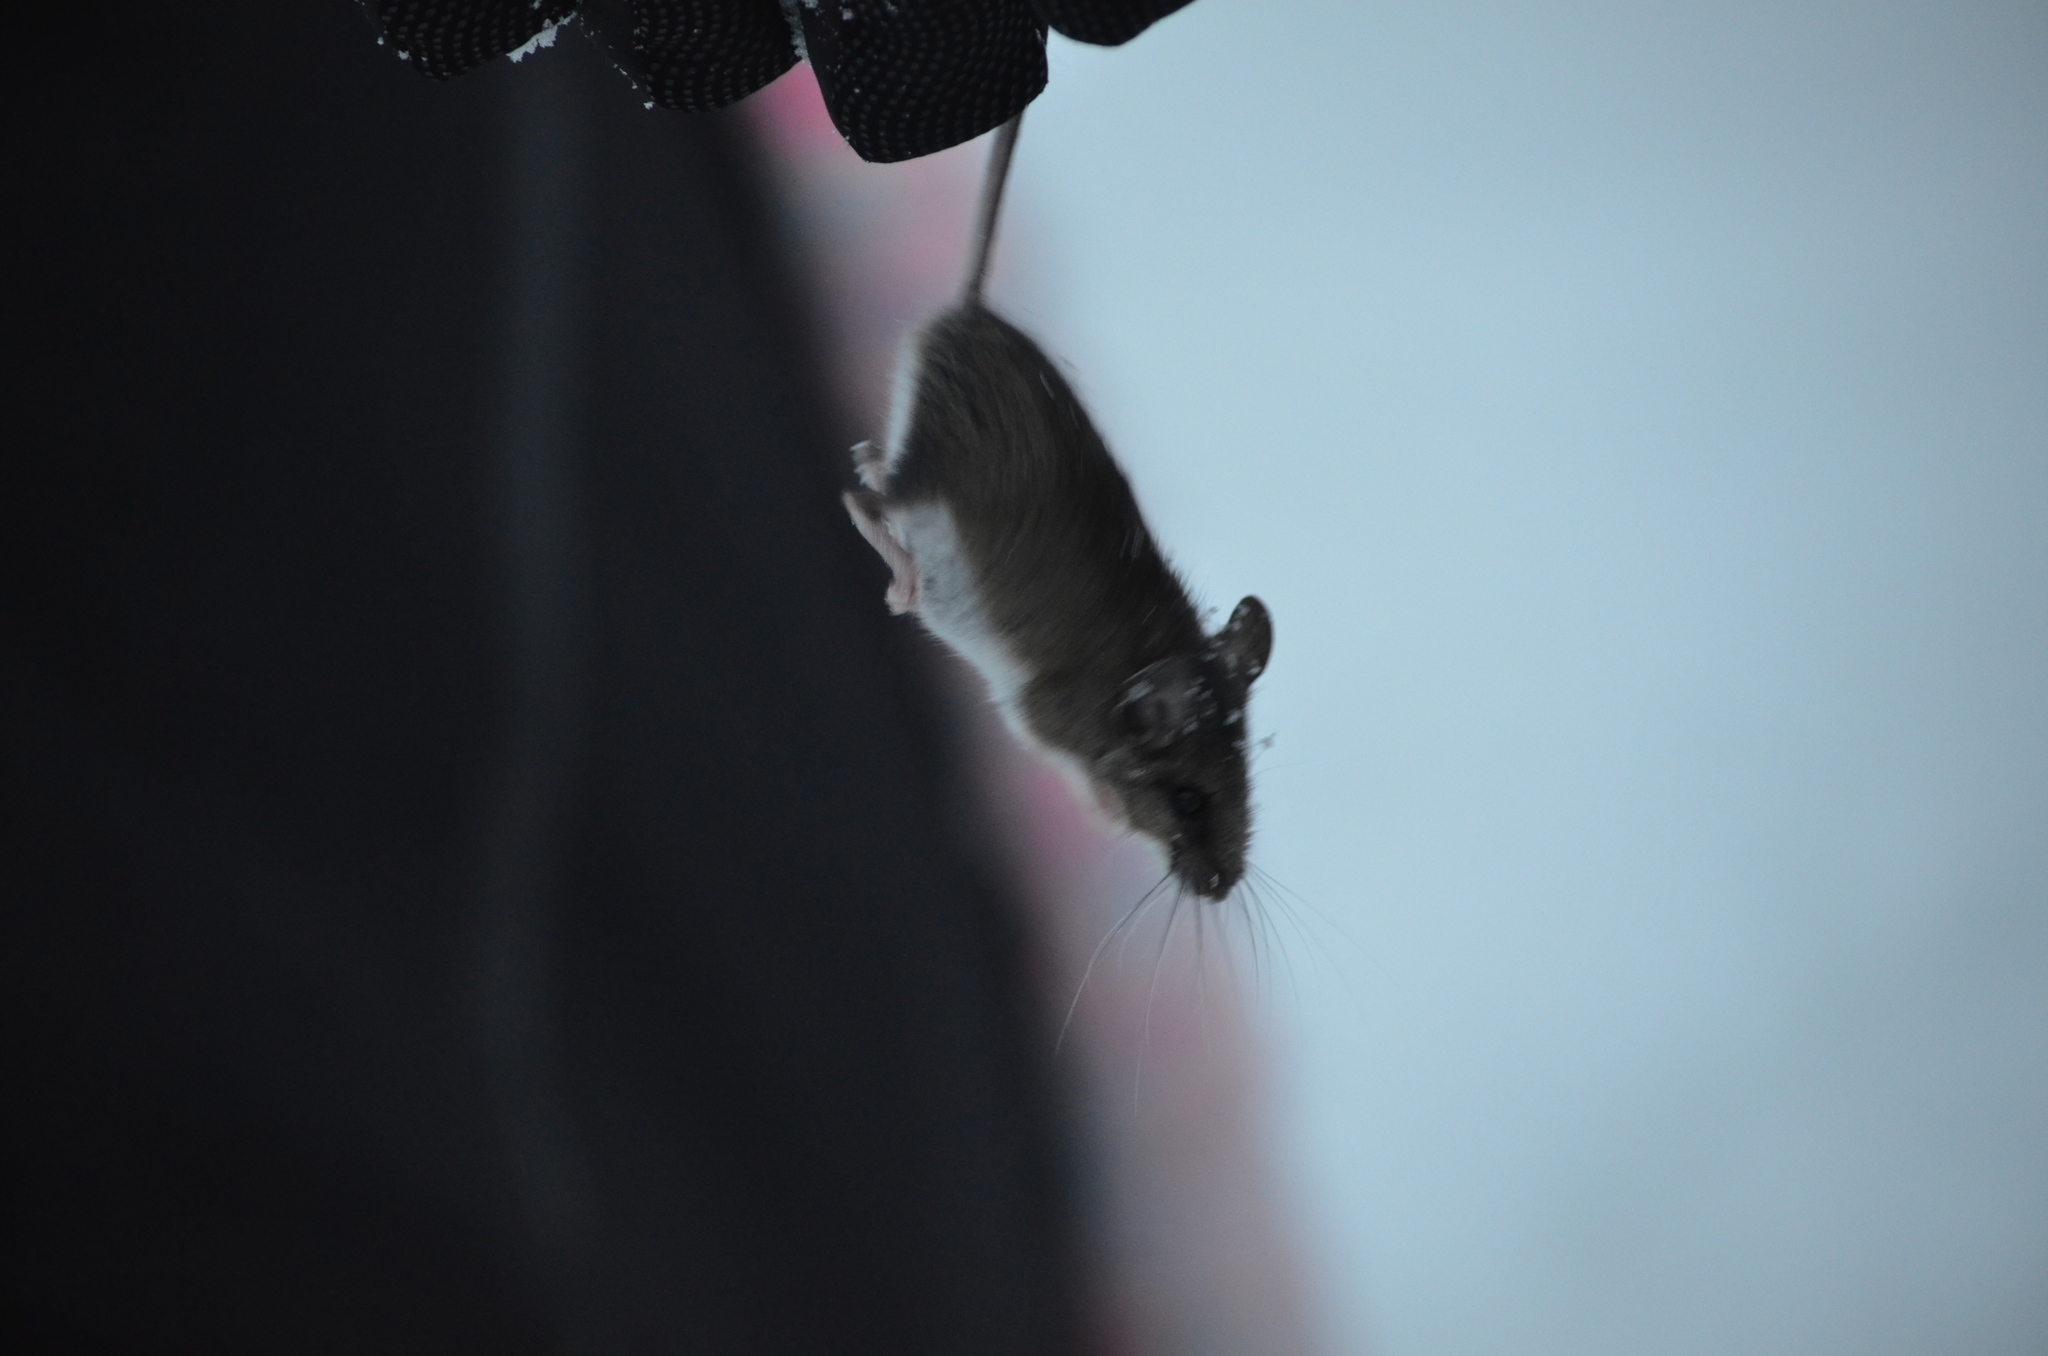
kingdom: Animalia
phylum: Chordata
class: Mammalia
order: Rodentia
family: Cricetidae
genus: Peromyscus
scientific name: Peromyscus maniculatus
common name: Deer mouse
